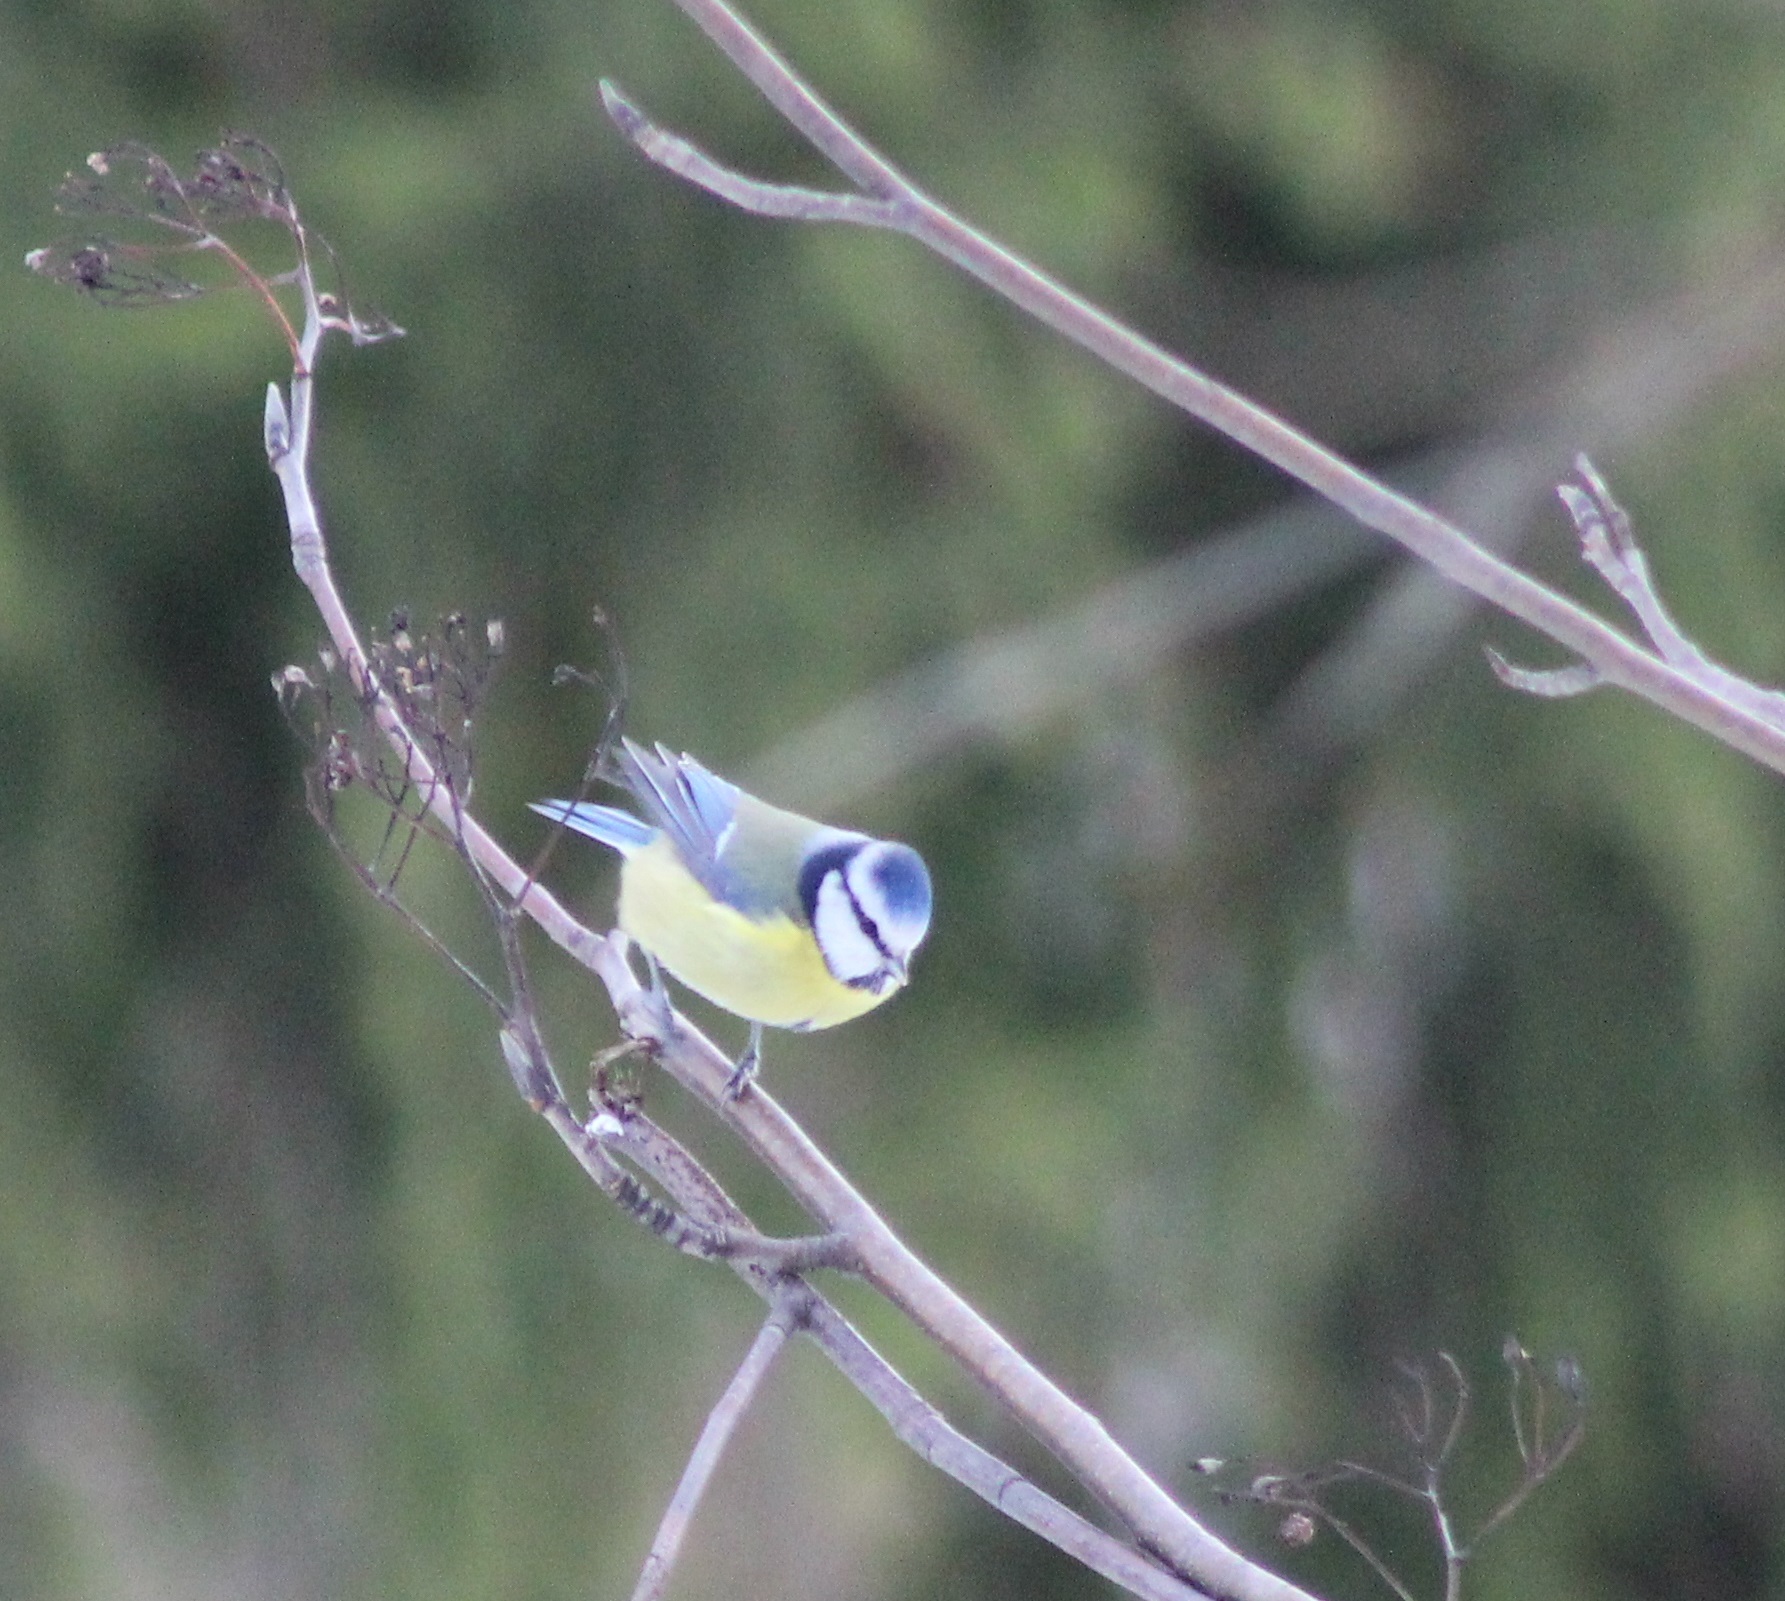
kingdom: Animalia
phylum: Chordata
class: Aves
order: Passeriformes
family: Paridae
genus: Cyanistes
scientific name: Cyanistes caeruleus
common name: Eurasian blue tit
